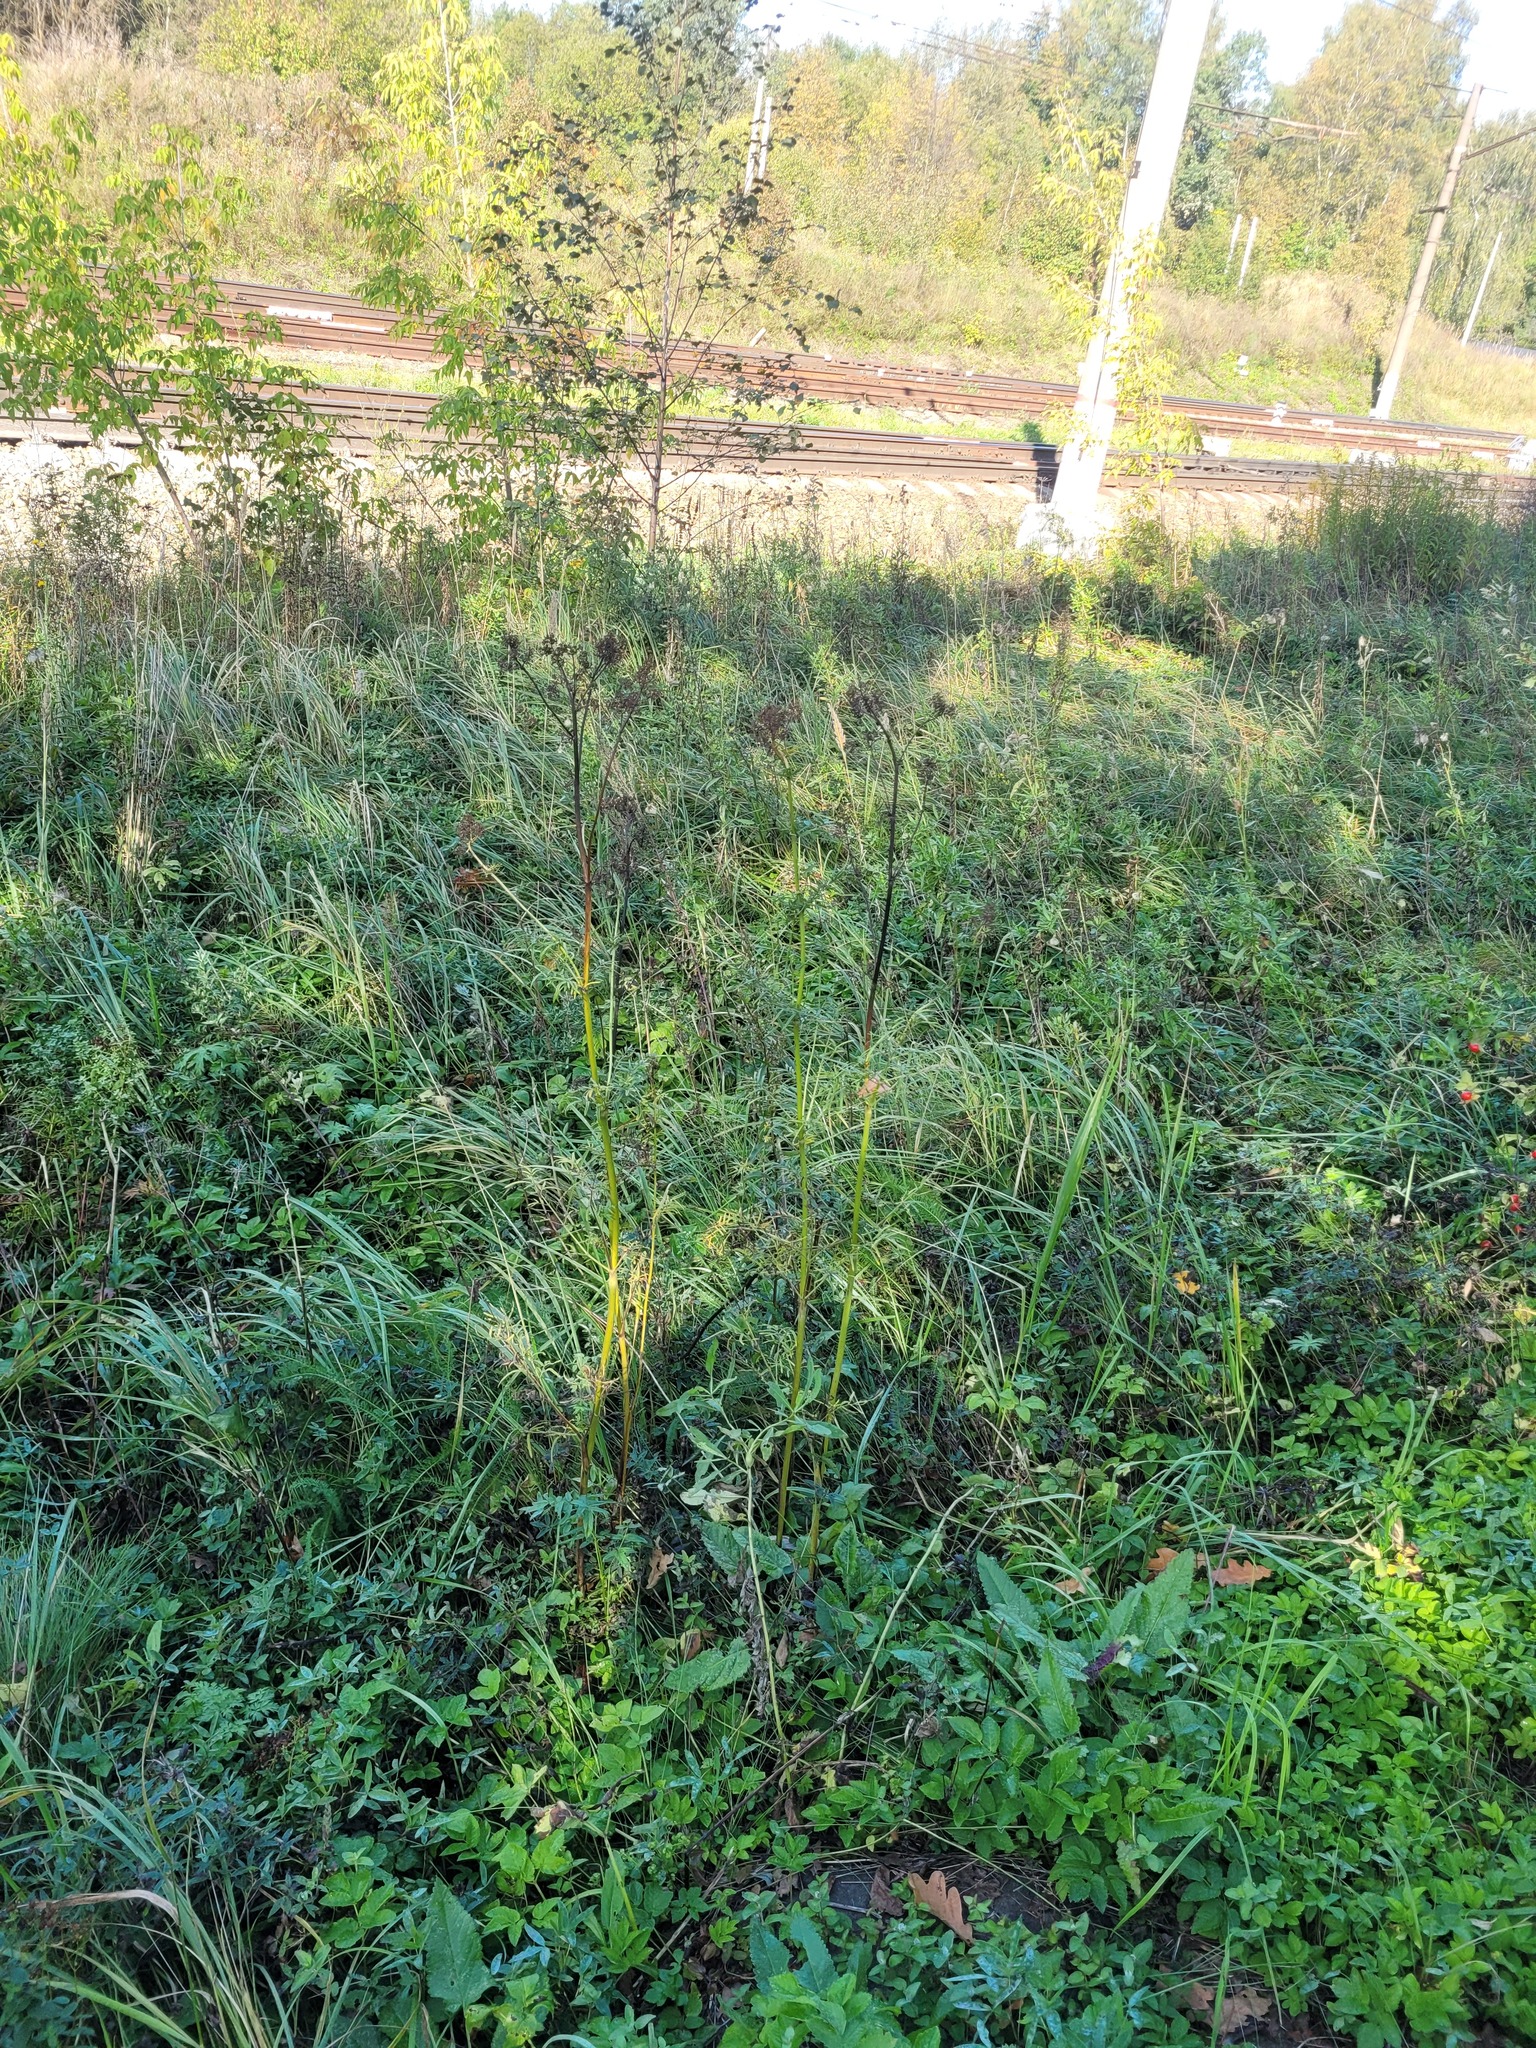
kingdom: Plantae
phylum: Tracheophyta
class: Magnoliopsida
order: Ranunculales
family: Ranunculaceae
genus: Thalictrum
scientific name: Thalictrum lucidum
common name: Shining meadow-rue
